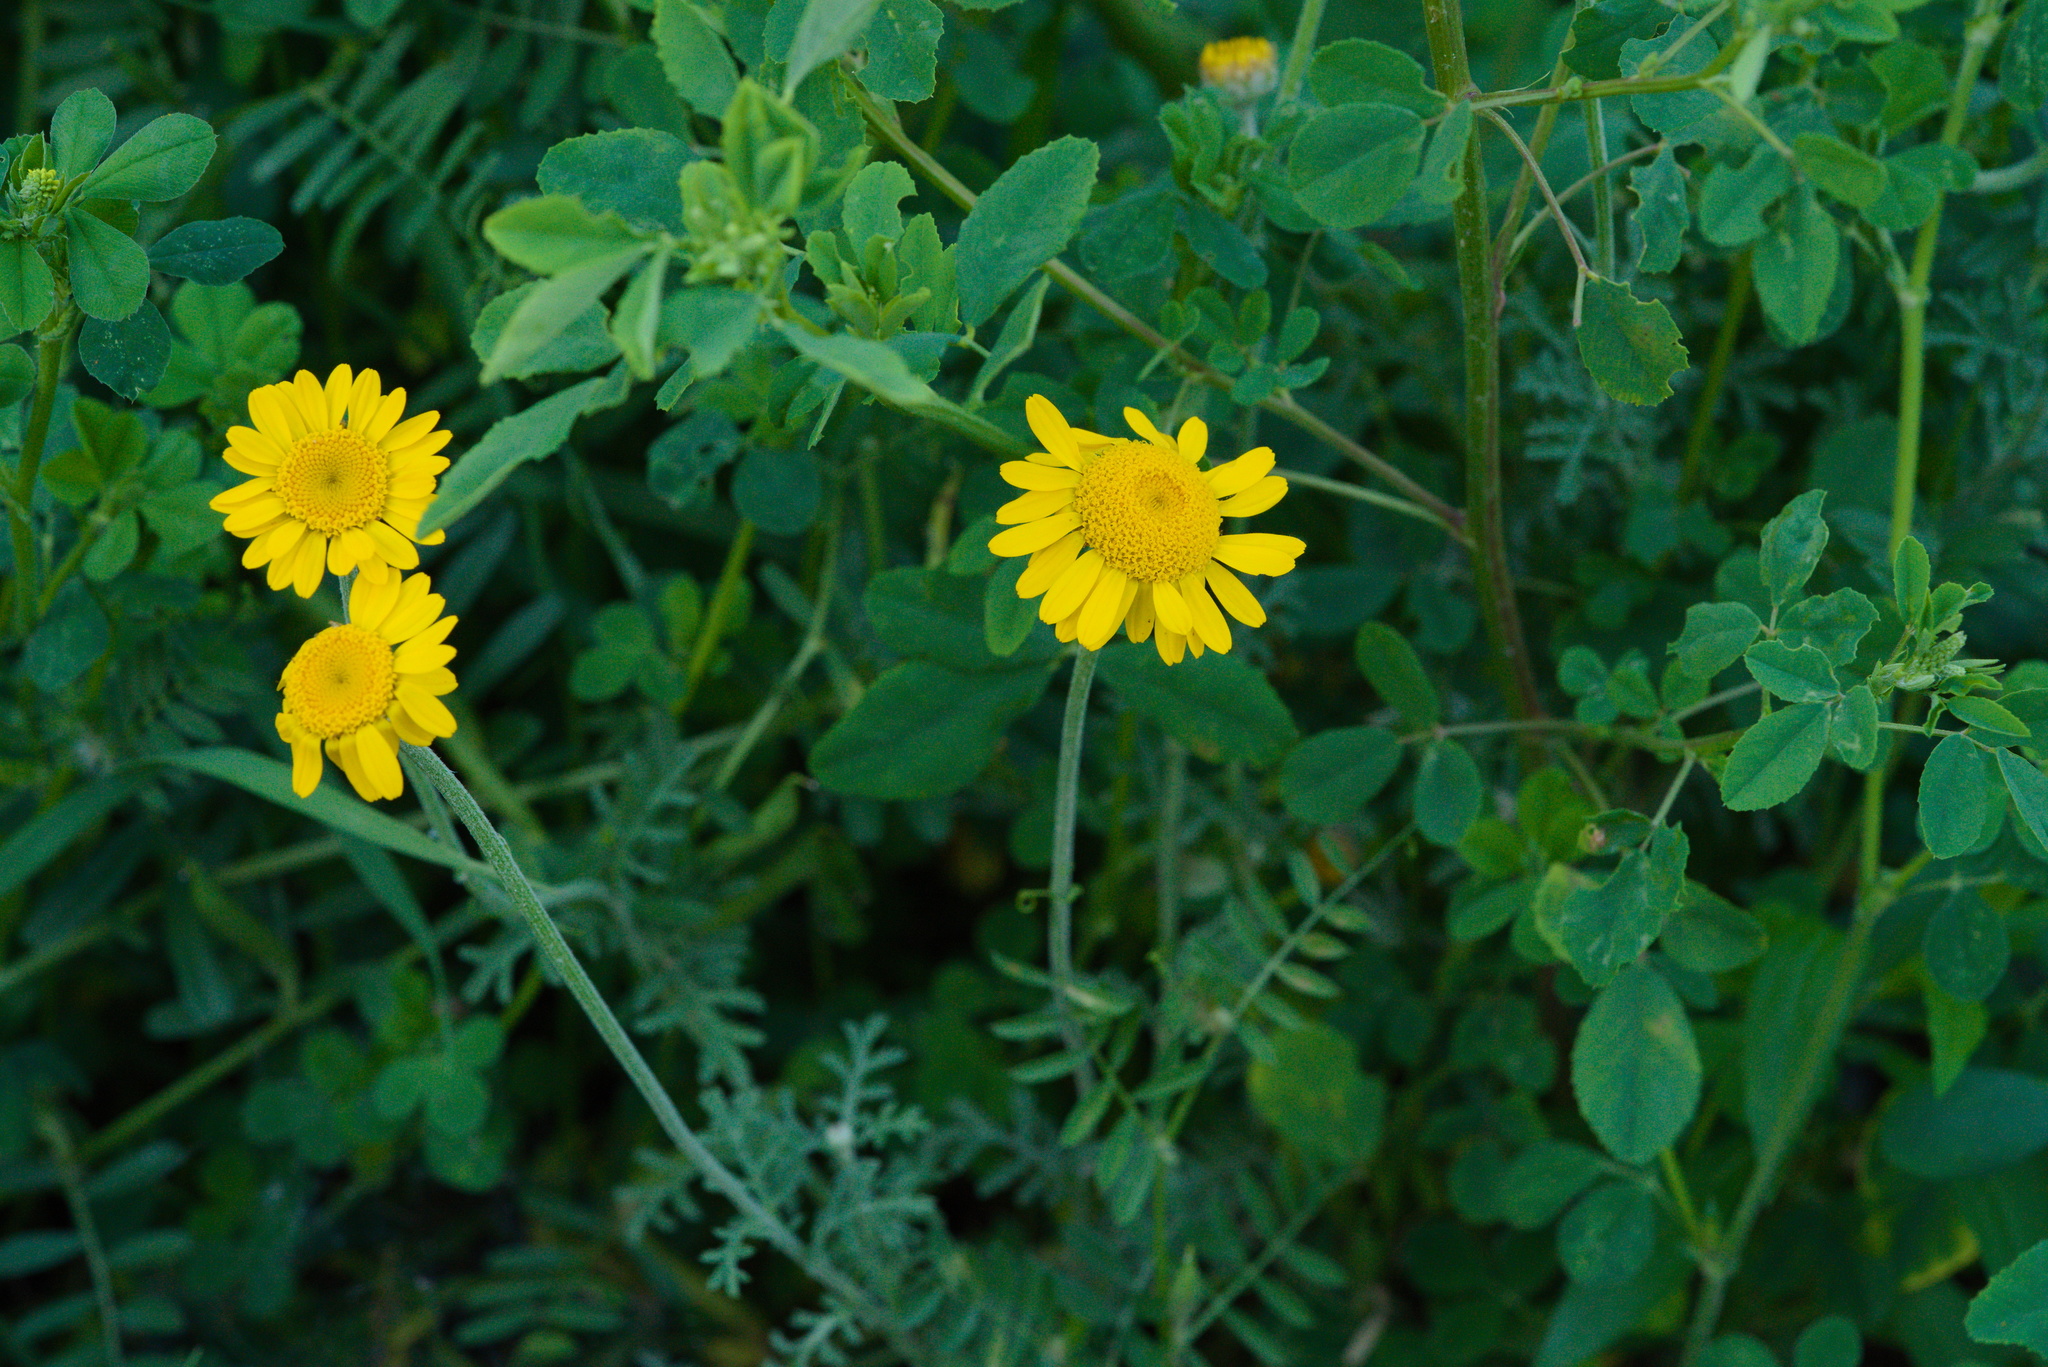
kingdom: Plantae
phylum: Tracheophyta
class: Magnoliopsida
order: Asterales
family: Asteraceae
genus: Cota
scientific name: Cota tinctoria
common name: Golden chamomile
